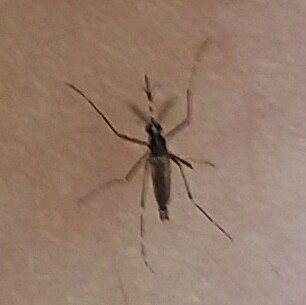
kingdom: Animalia
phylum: Arthropoda
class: Insecta
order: Diptera
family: Culicidae
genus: Aedes
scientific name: Aedes albopictus
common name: Tiger mosquito
